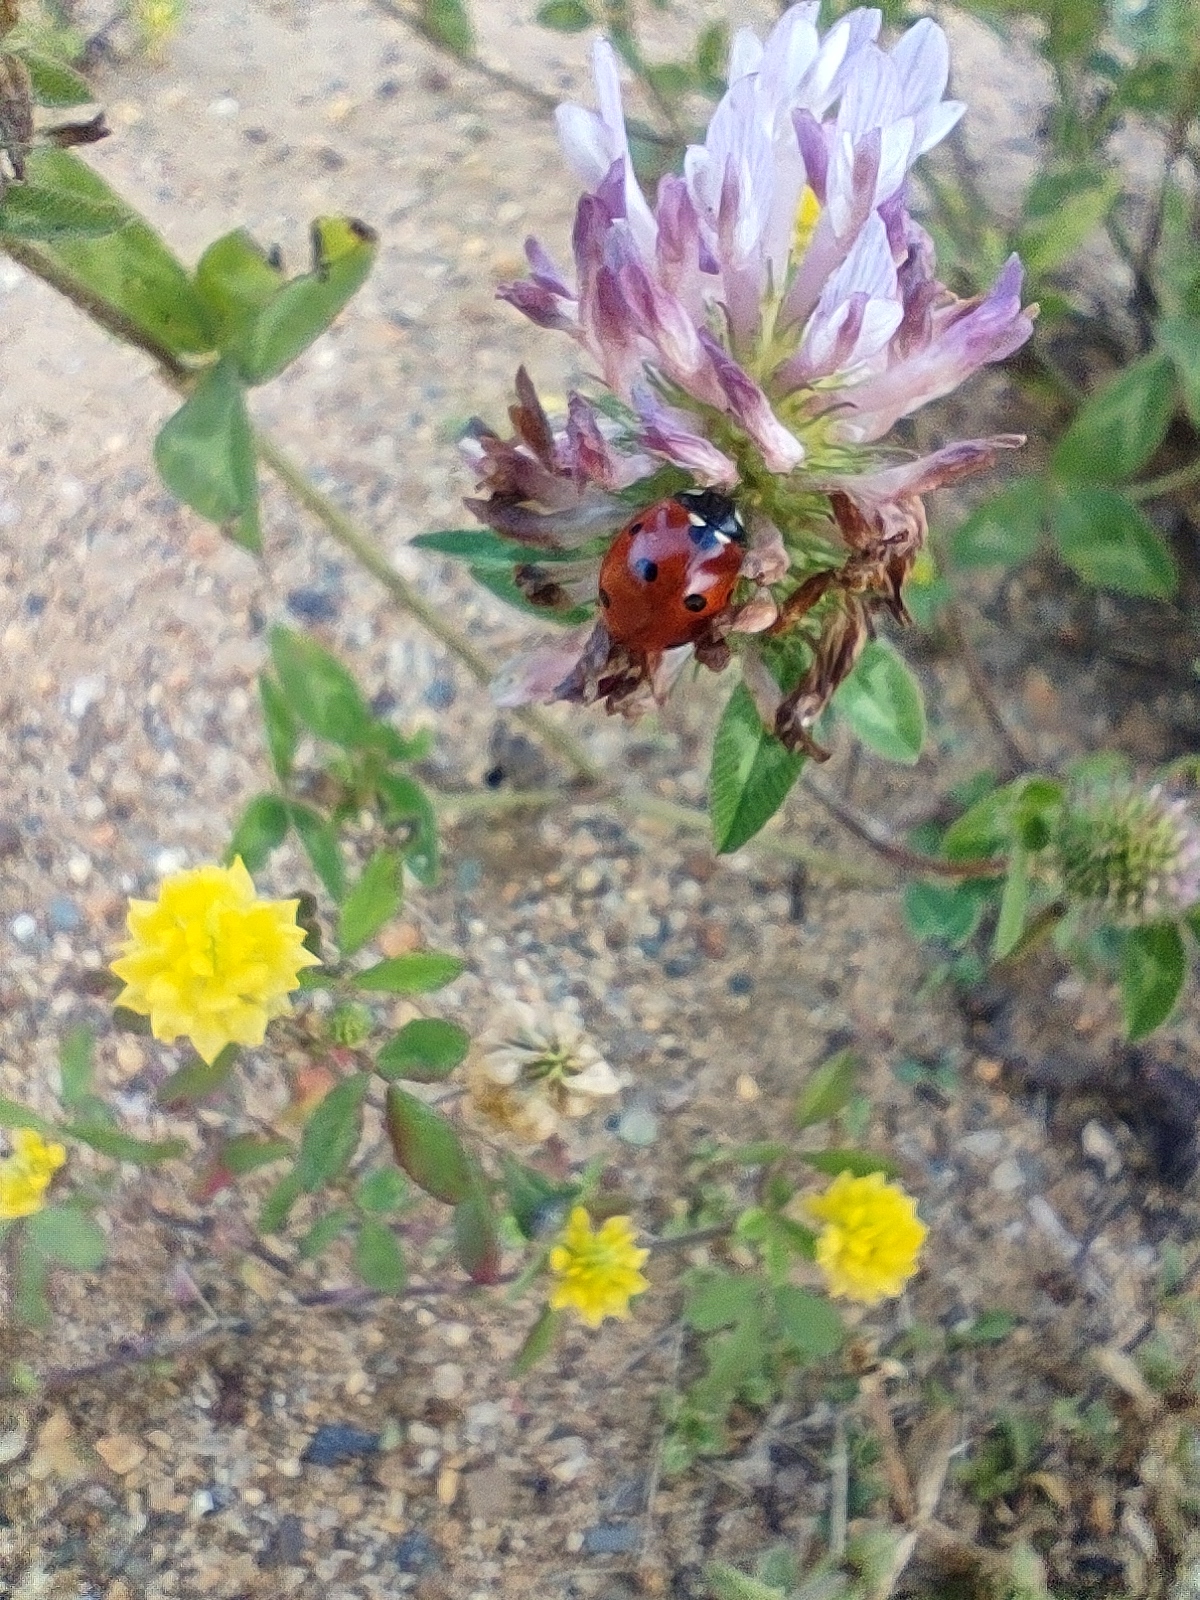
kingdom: Animalia
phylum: Arthropoda
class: Insecta
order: Coleoptera
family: Coccinellidae
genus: Coccinella
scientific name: Coccinella septempunctata
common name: Sevenspotted lady beetle
